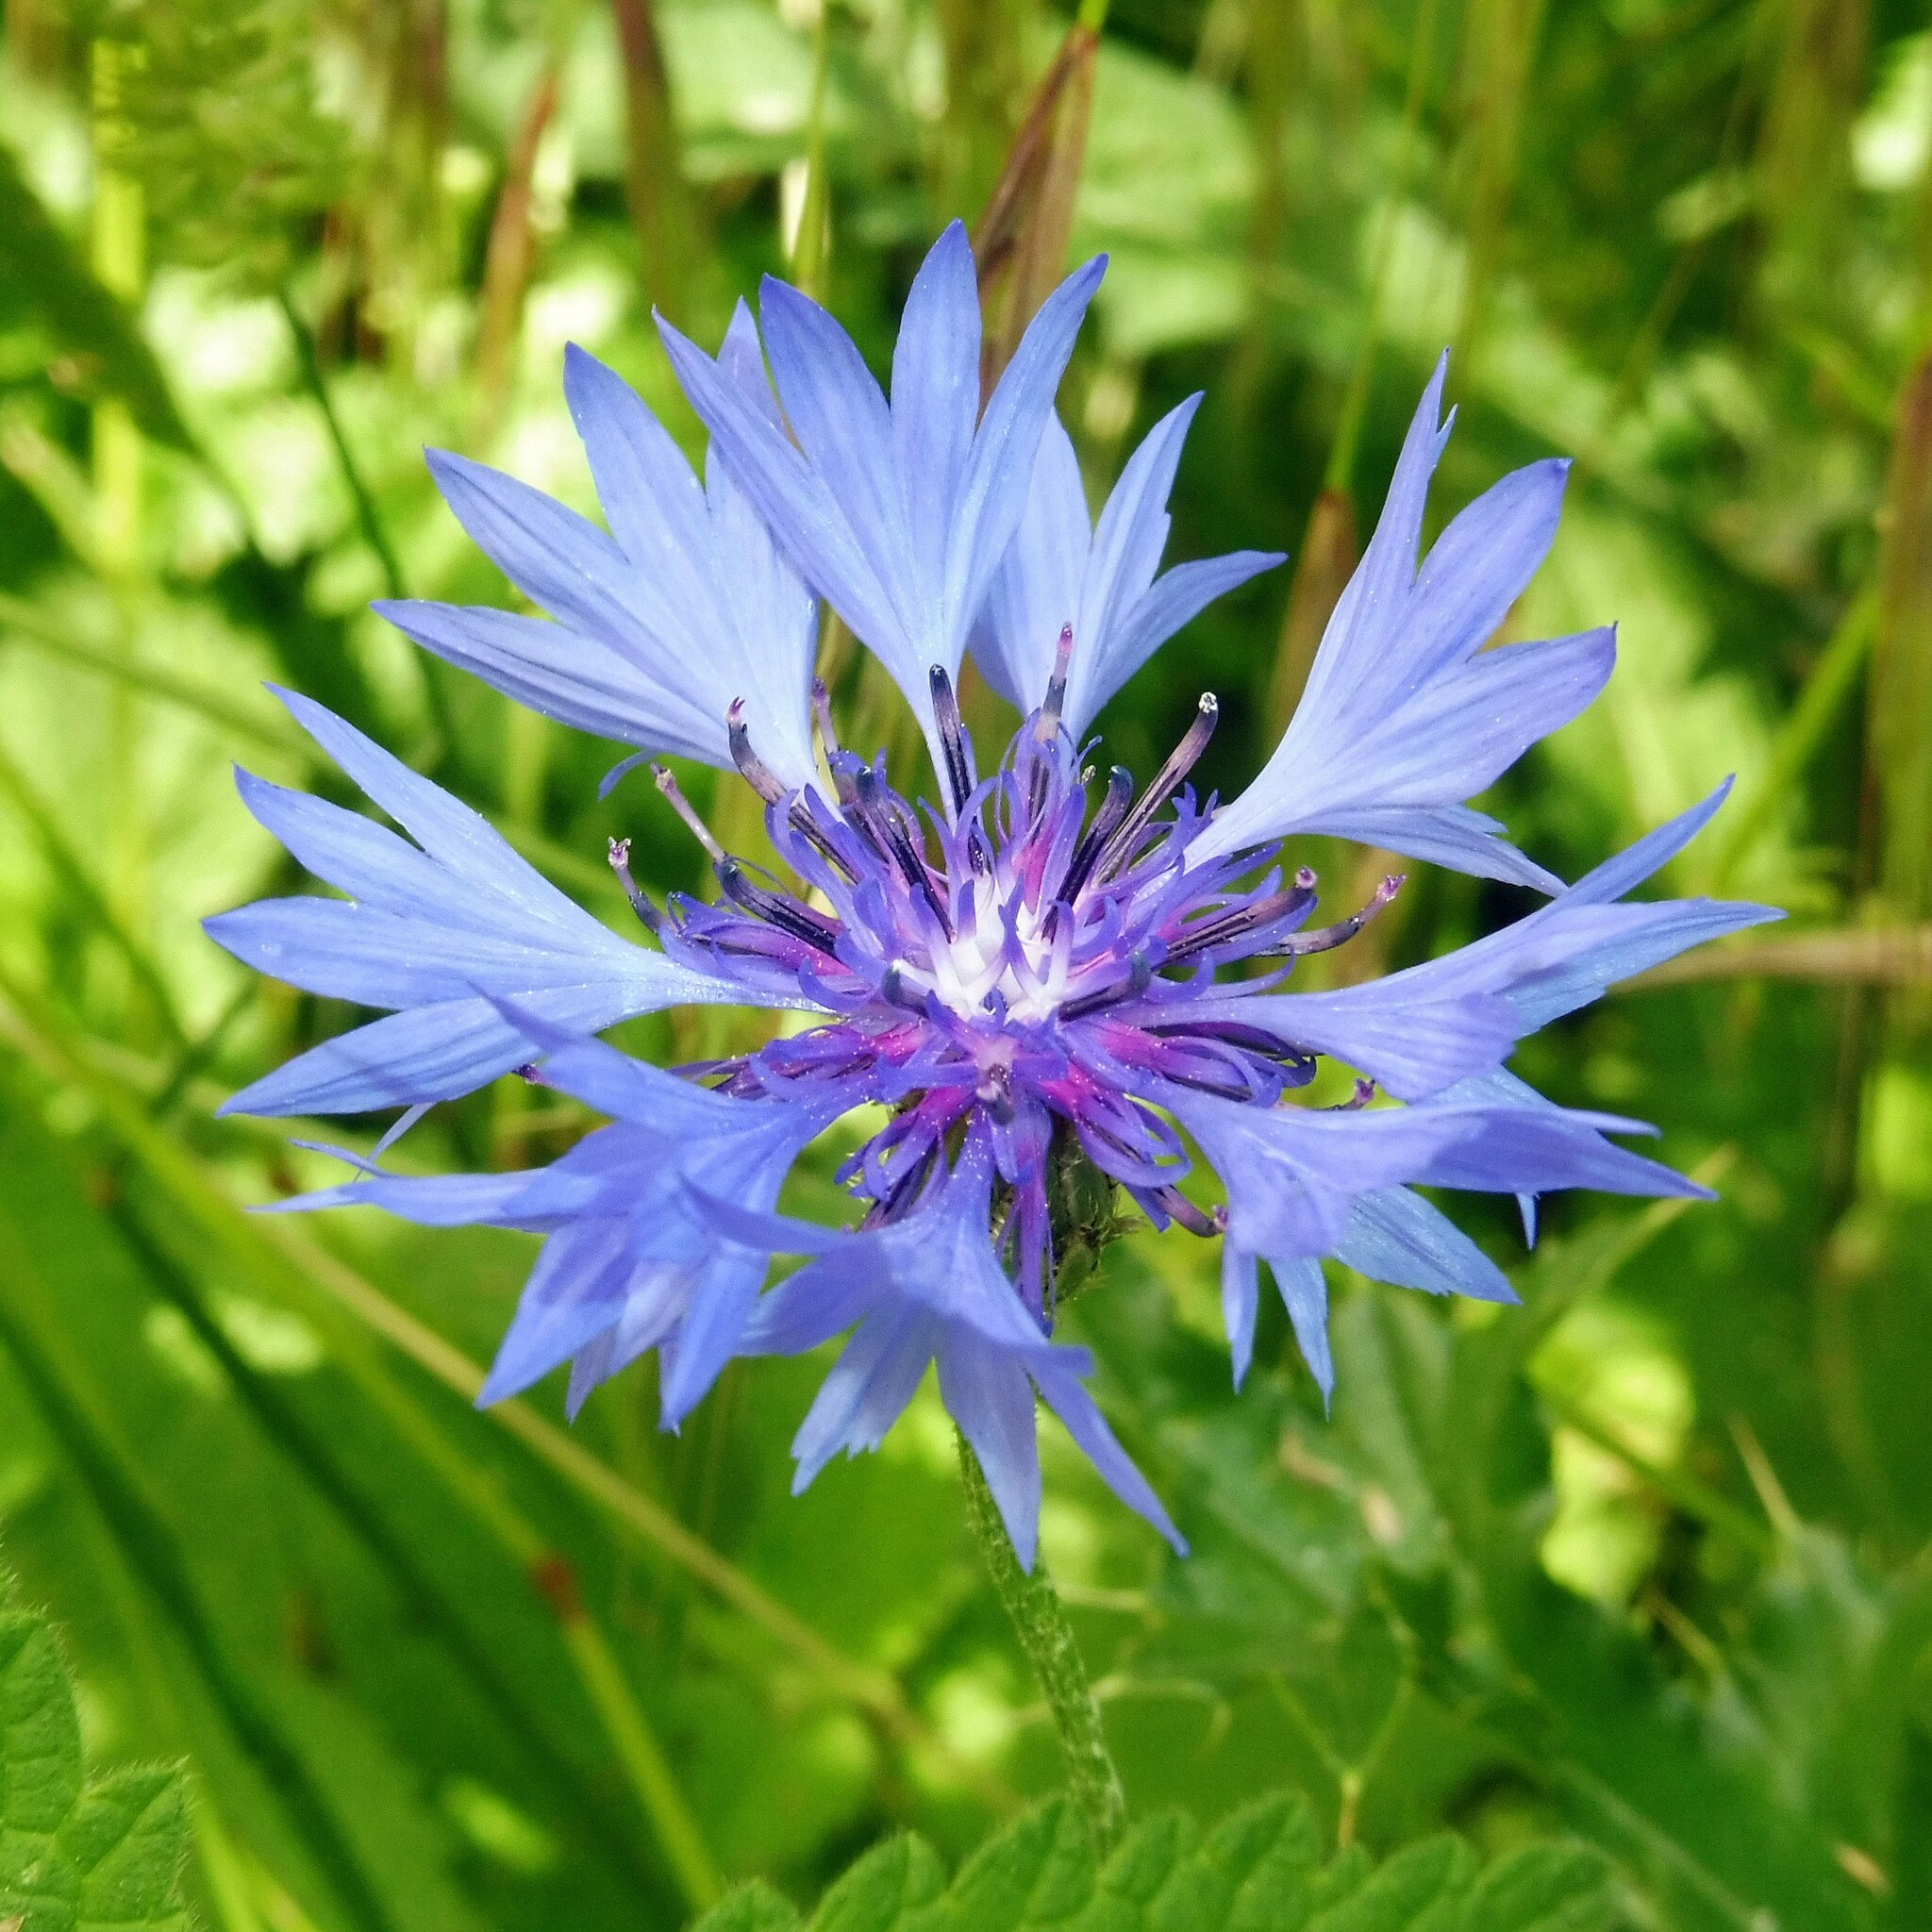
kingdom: Plantae
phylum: Tracheophyta
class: Magnoliopsida
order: Asterales
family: Asteraceae
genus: Centaurea
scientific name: Centaurea cyanus
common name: Cornflower
